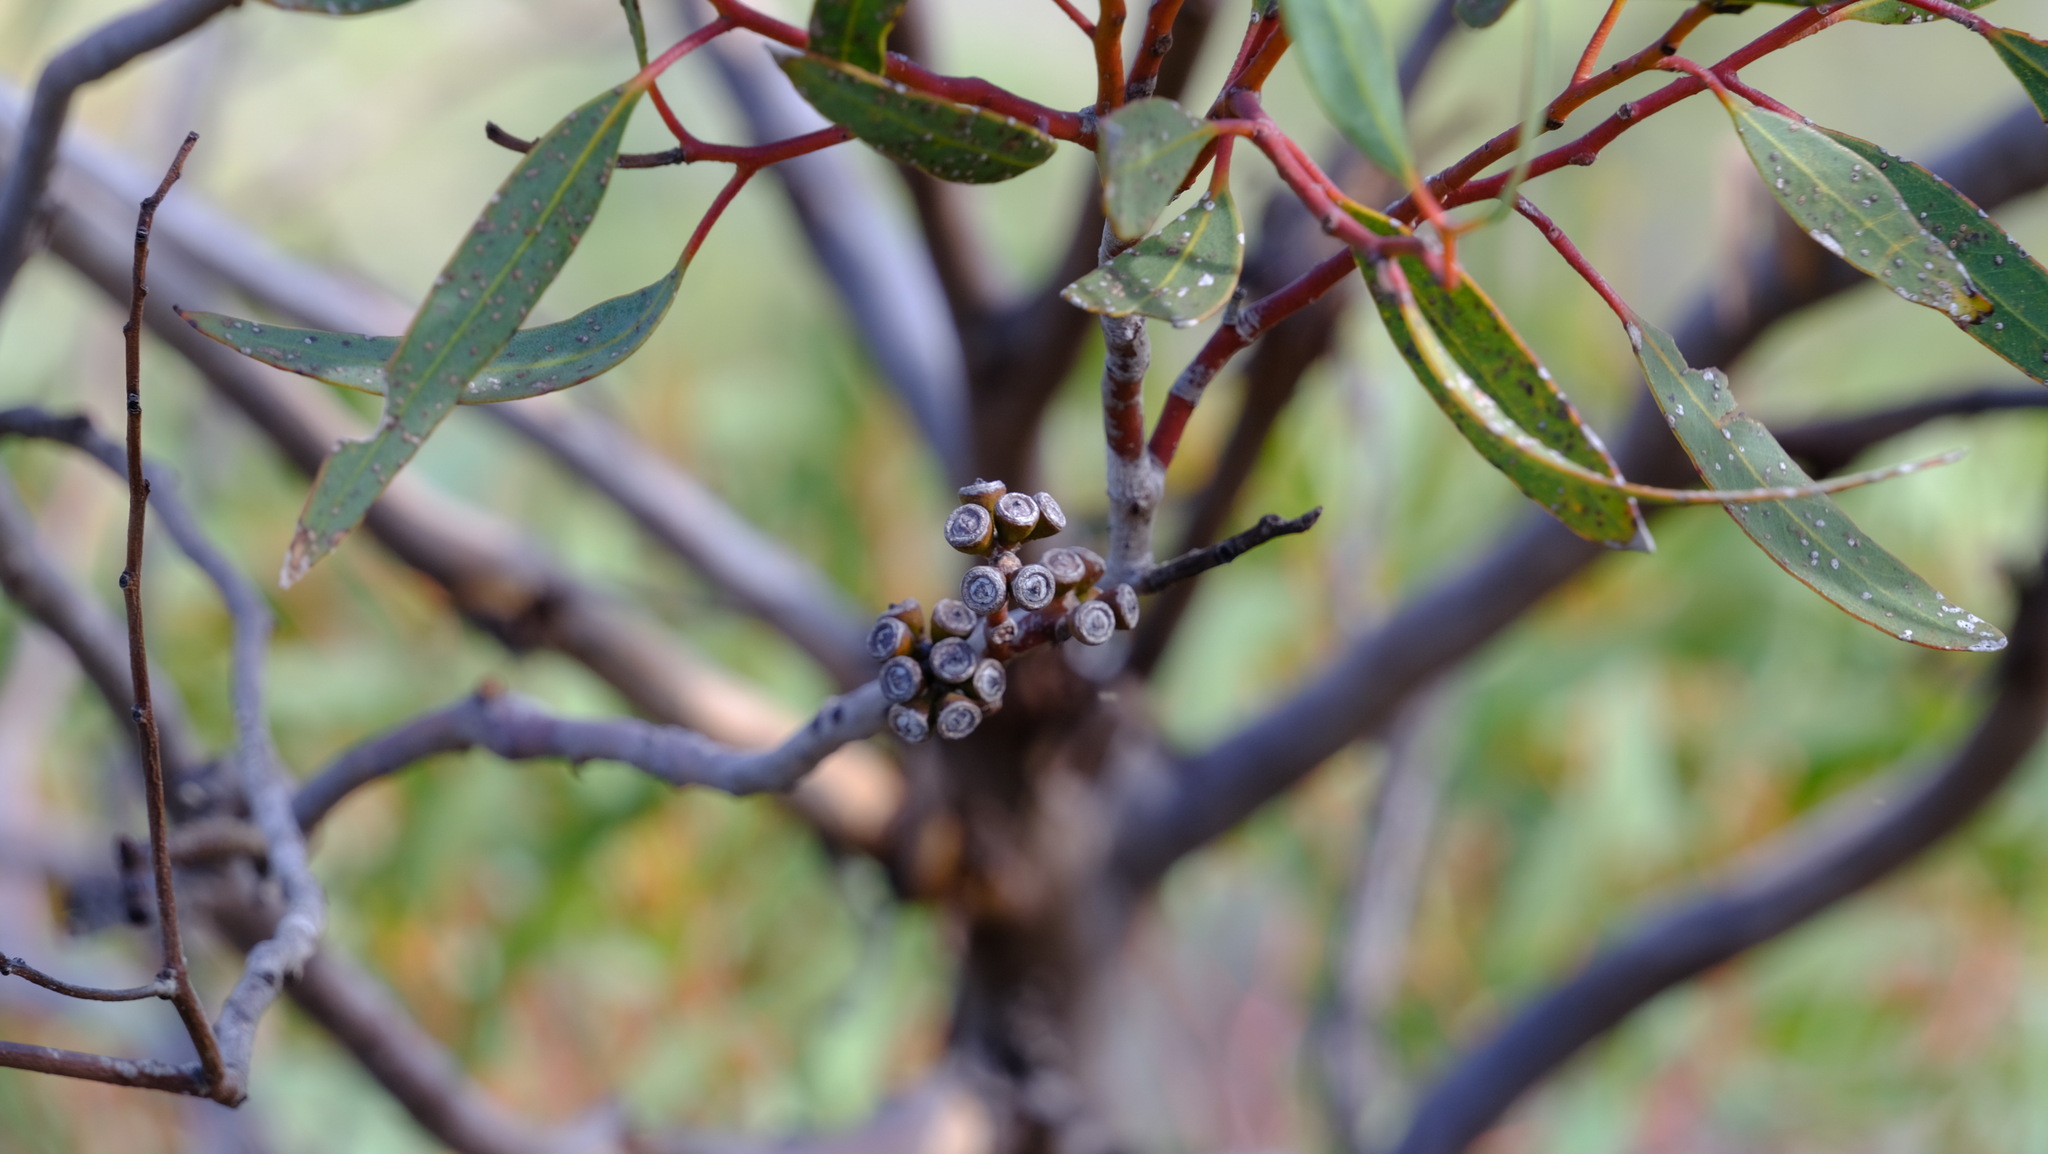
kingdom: Plantae
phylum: Tracheophyta
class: Magnoliopsida
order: Myrtales
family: Myrtaceae
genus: Eucalyptus
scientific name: Eucalyptus subangusta
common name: Ember mallee
